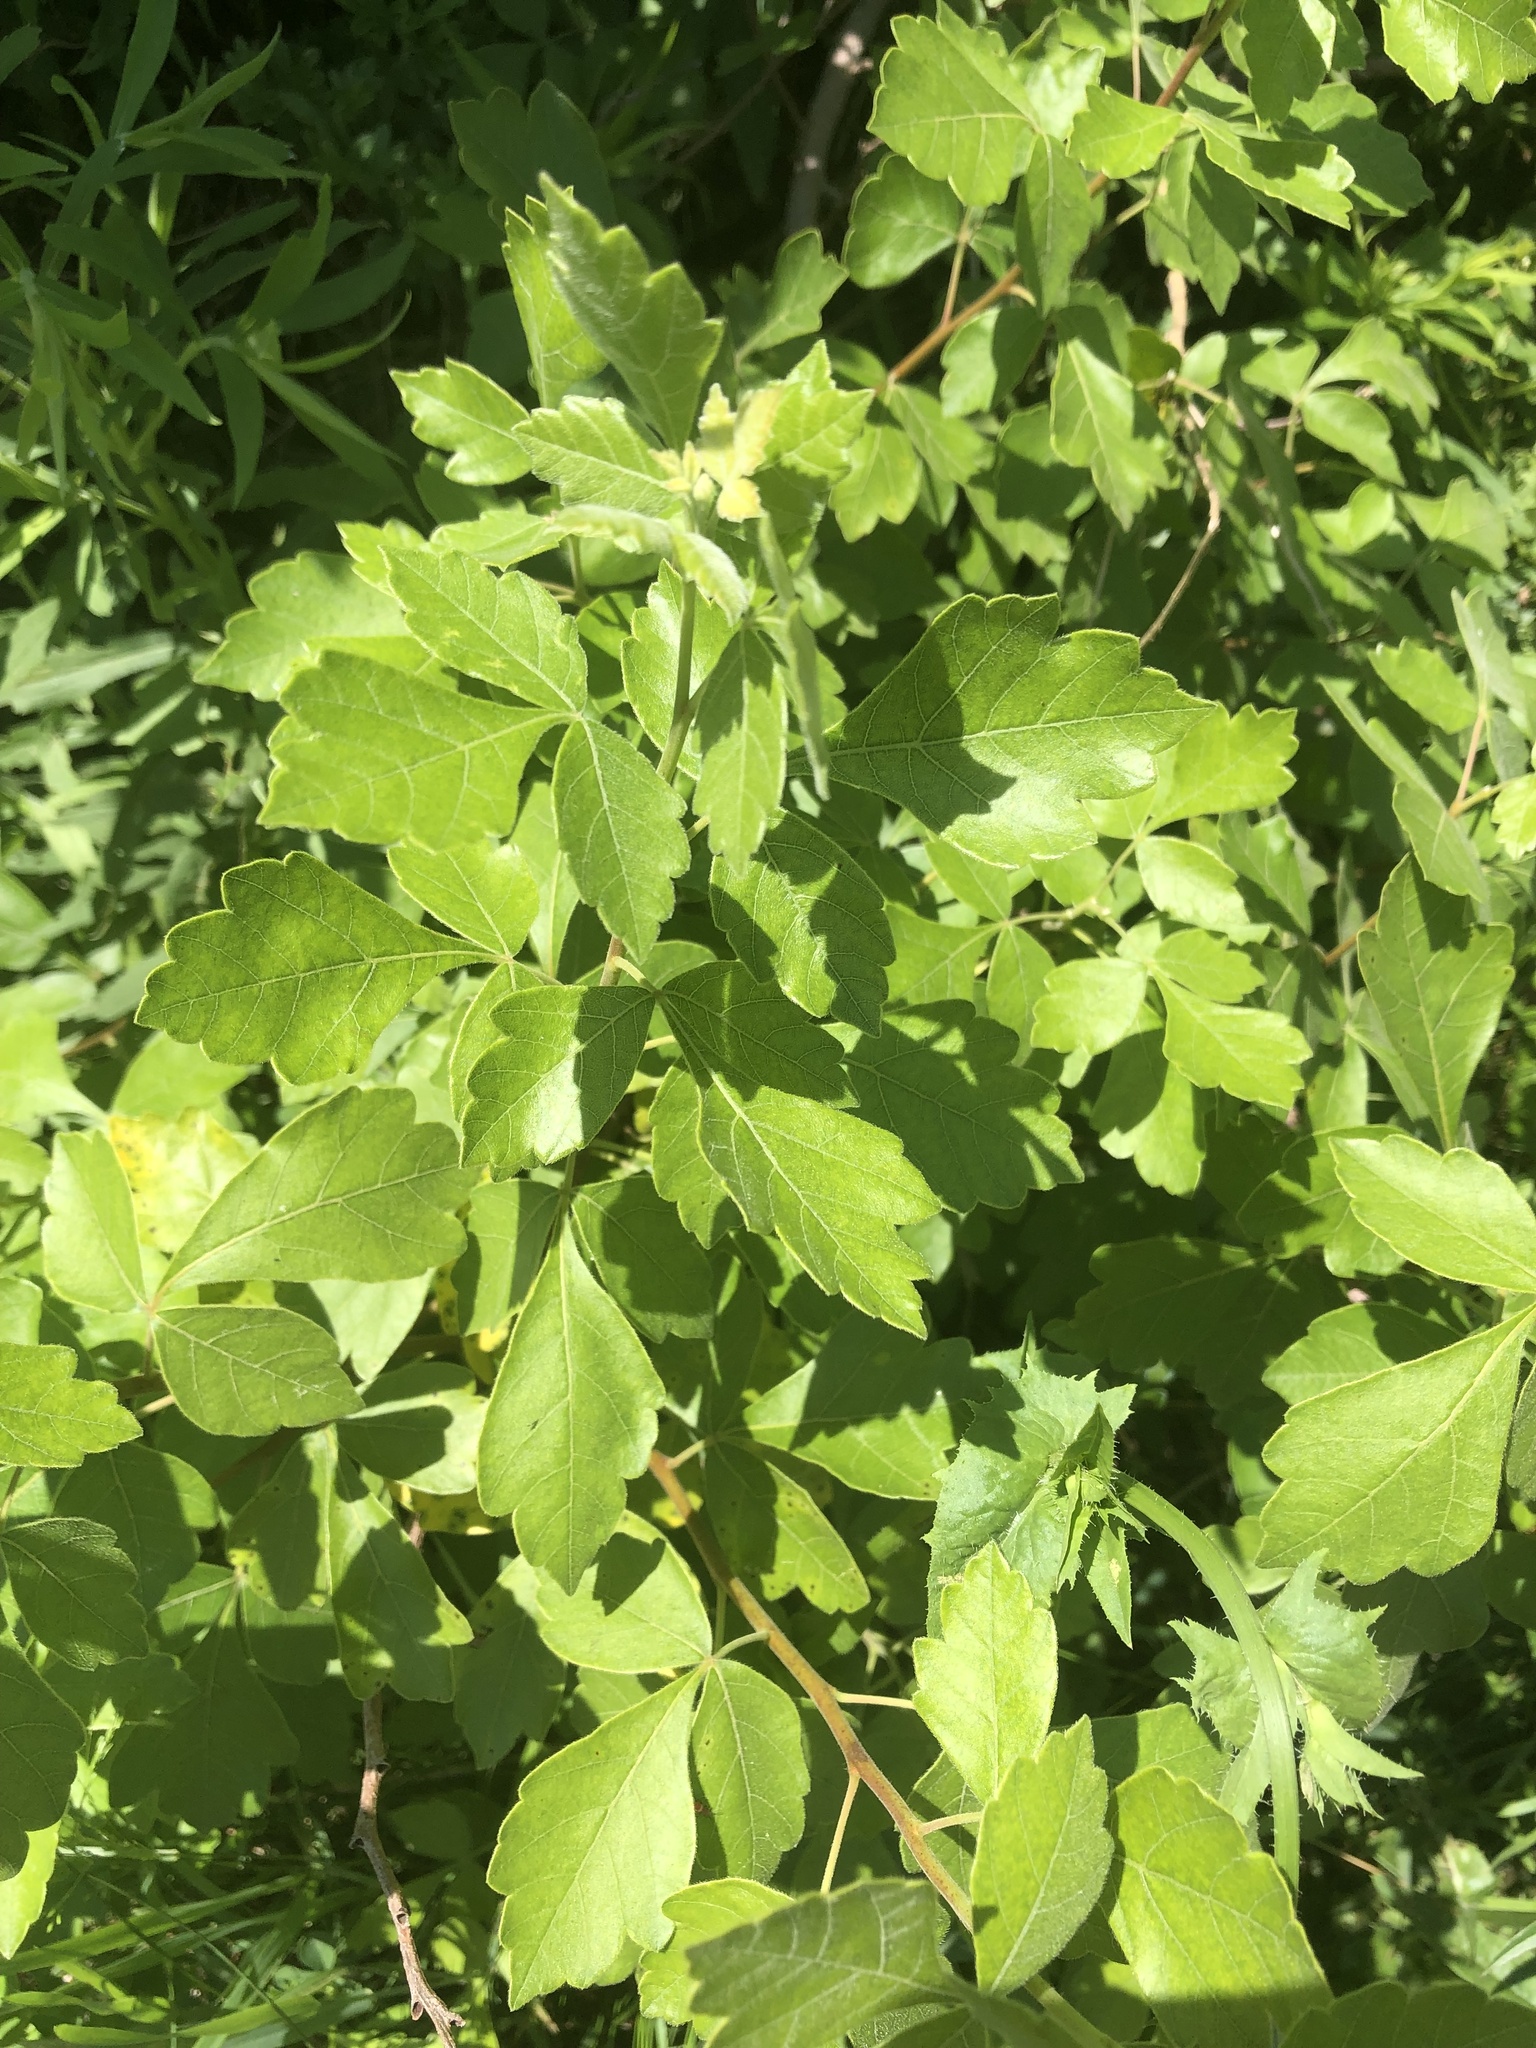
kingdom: Plantae
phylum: Tracheophyta
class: Magnoliopsida
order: Sapindales
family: Anacardiaceae
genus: Rhus
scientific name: Rhus aromatica
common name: Aromatic sumac
